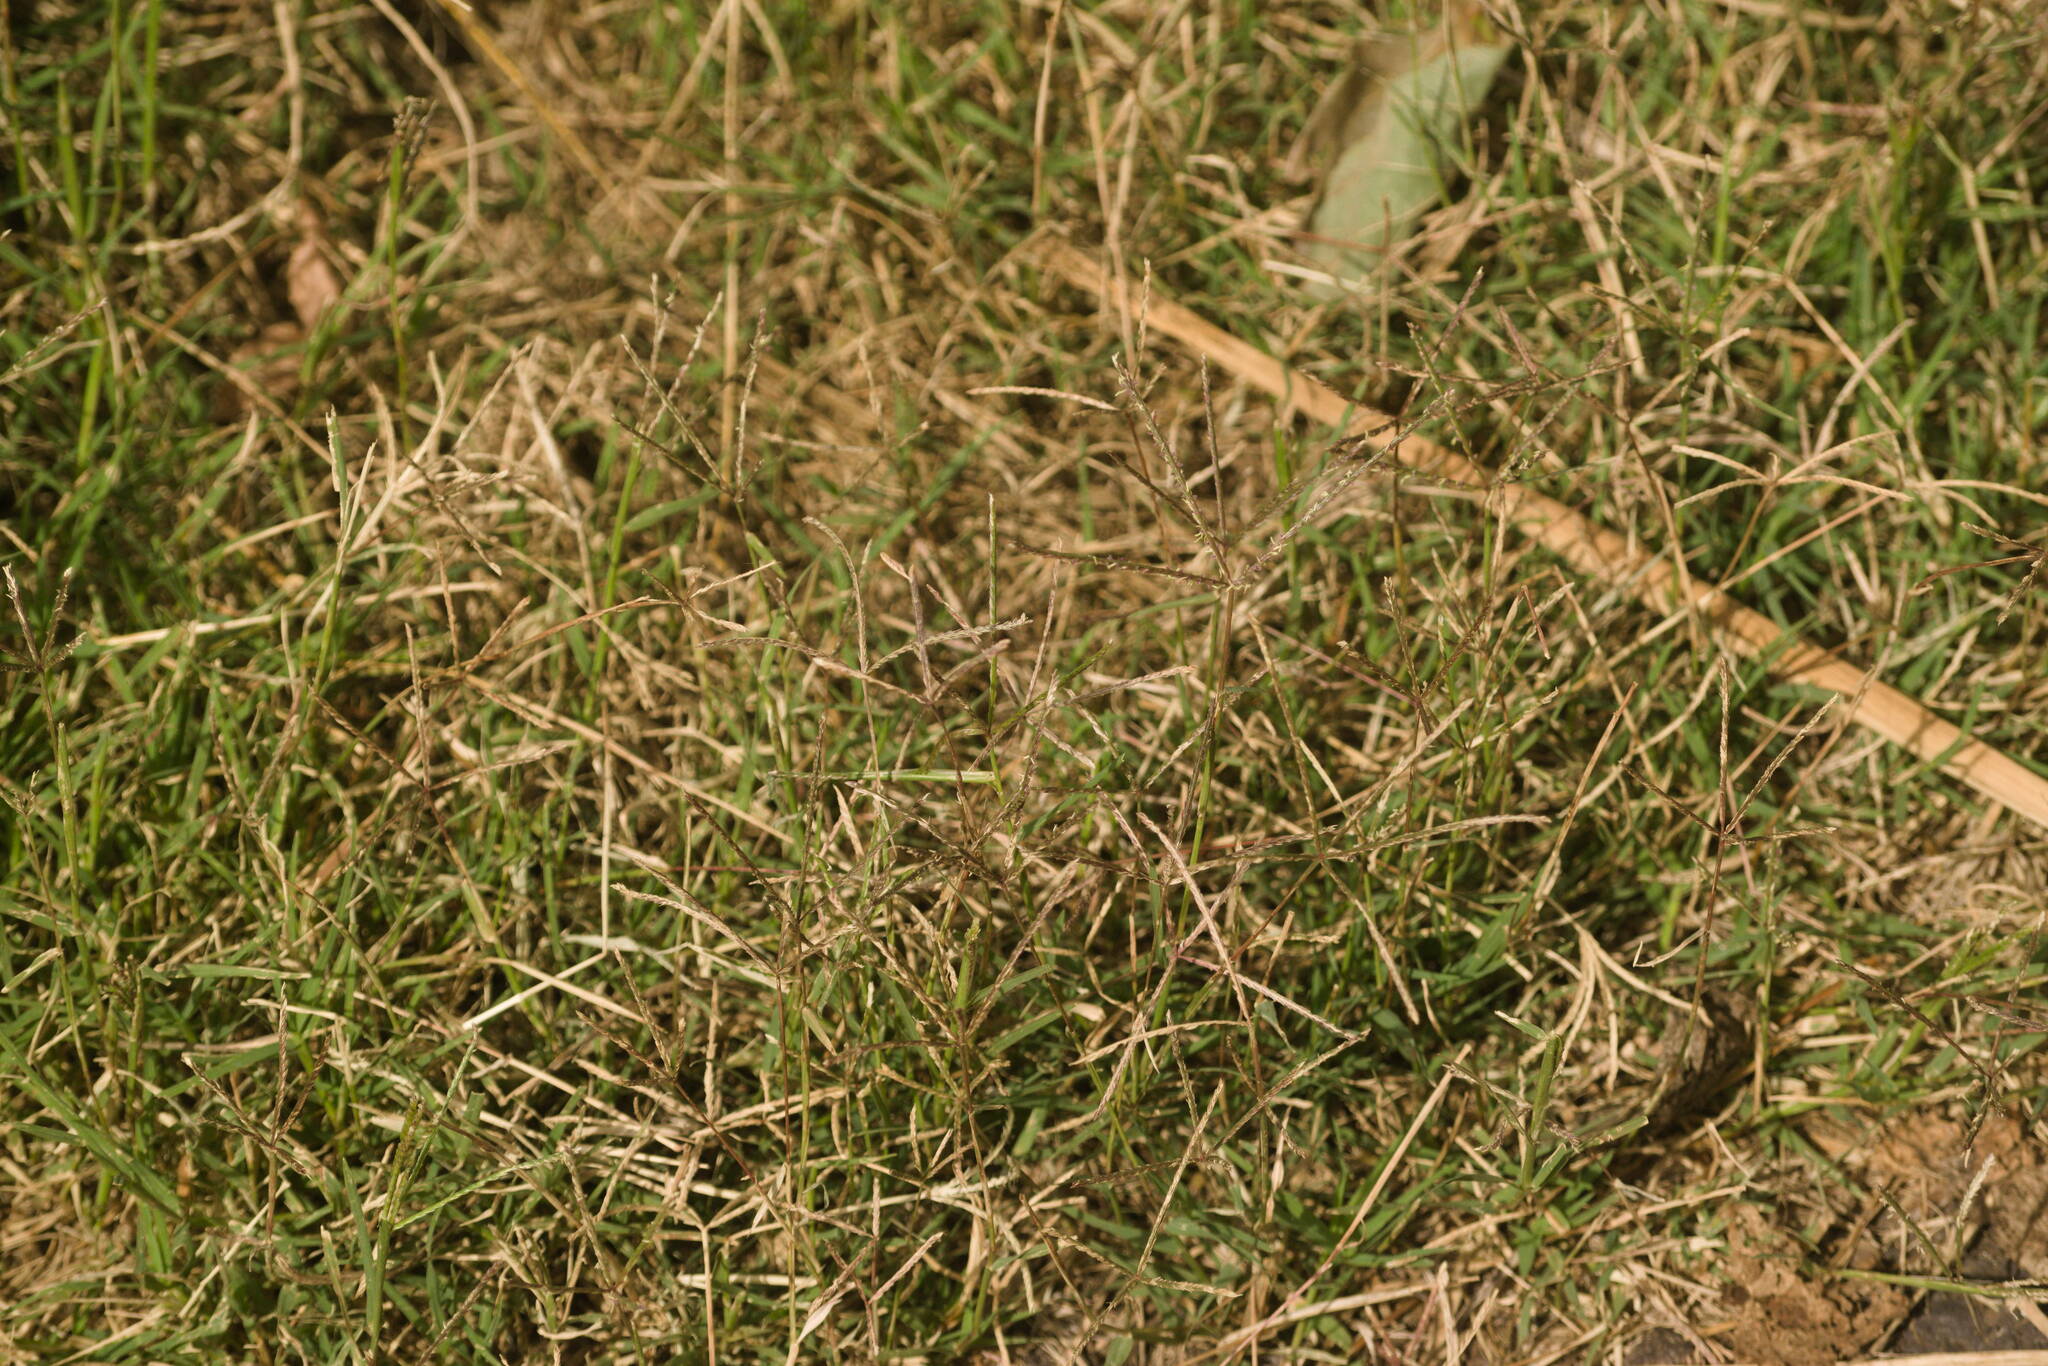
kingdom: Plantae
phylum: Tracheophyta
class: Liliopsida
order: Poales
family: Poaceae
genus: Cynodon
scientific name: Cynodon dactylon
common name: Bermuda grass
